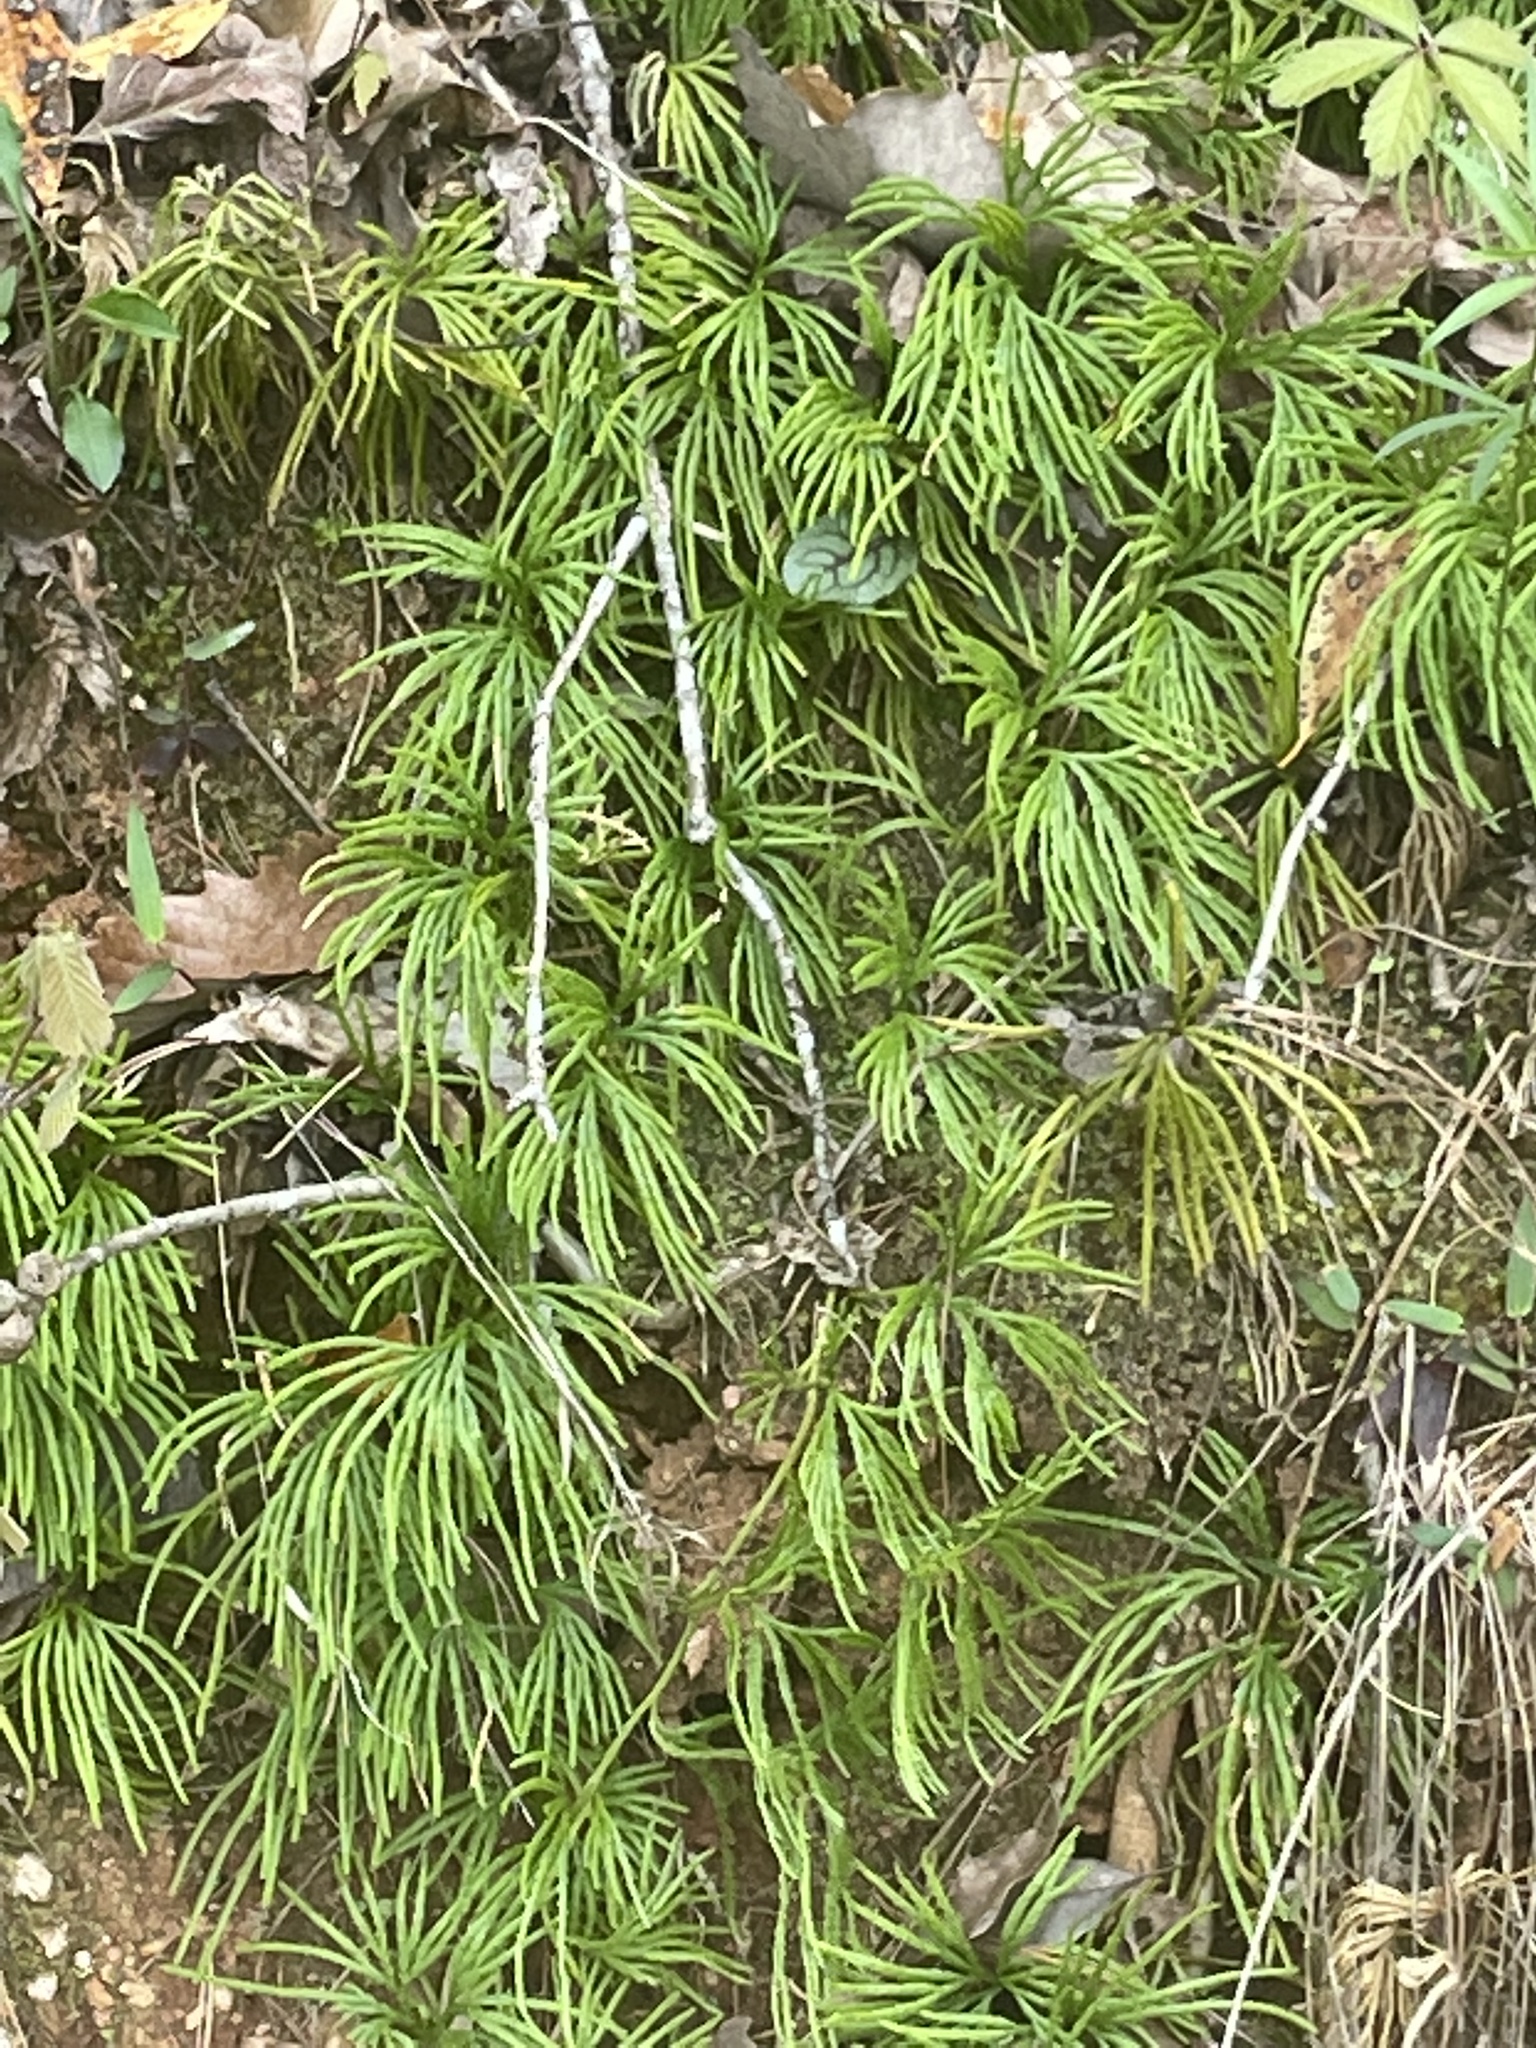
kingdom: Plantae
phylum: Tracheophyta
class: Lycopodiopsida
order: Lycopodiales
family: Lycopodiaceae
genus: Diphasiastrum
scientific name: Diphasiastrum digitatum
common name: Southern running-pine
